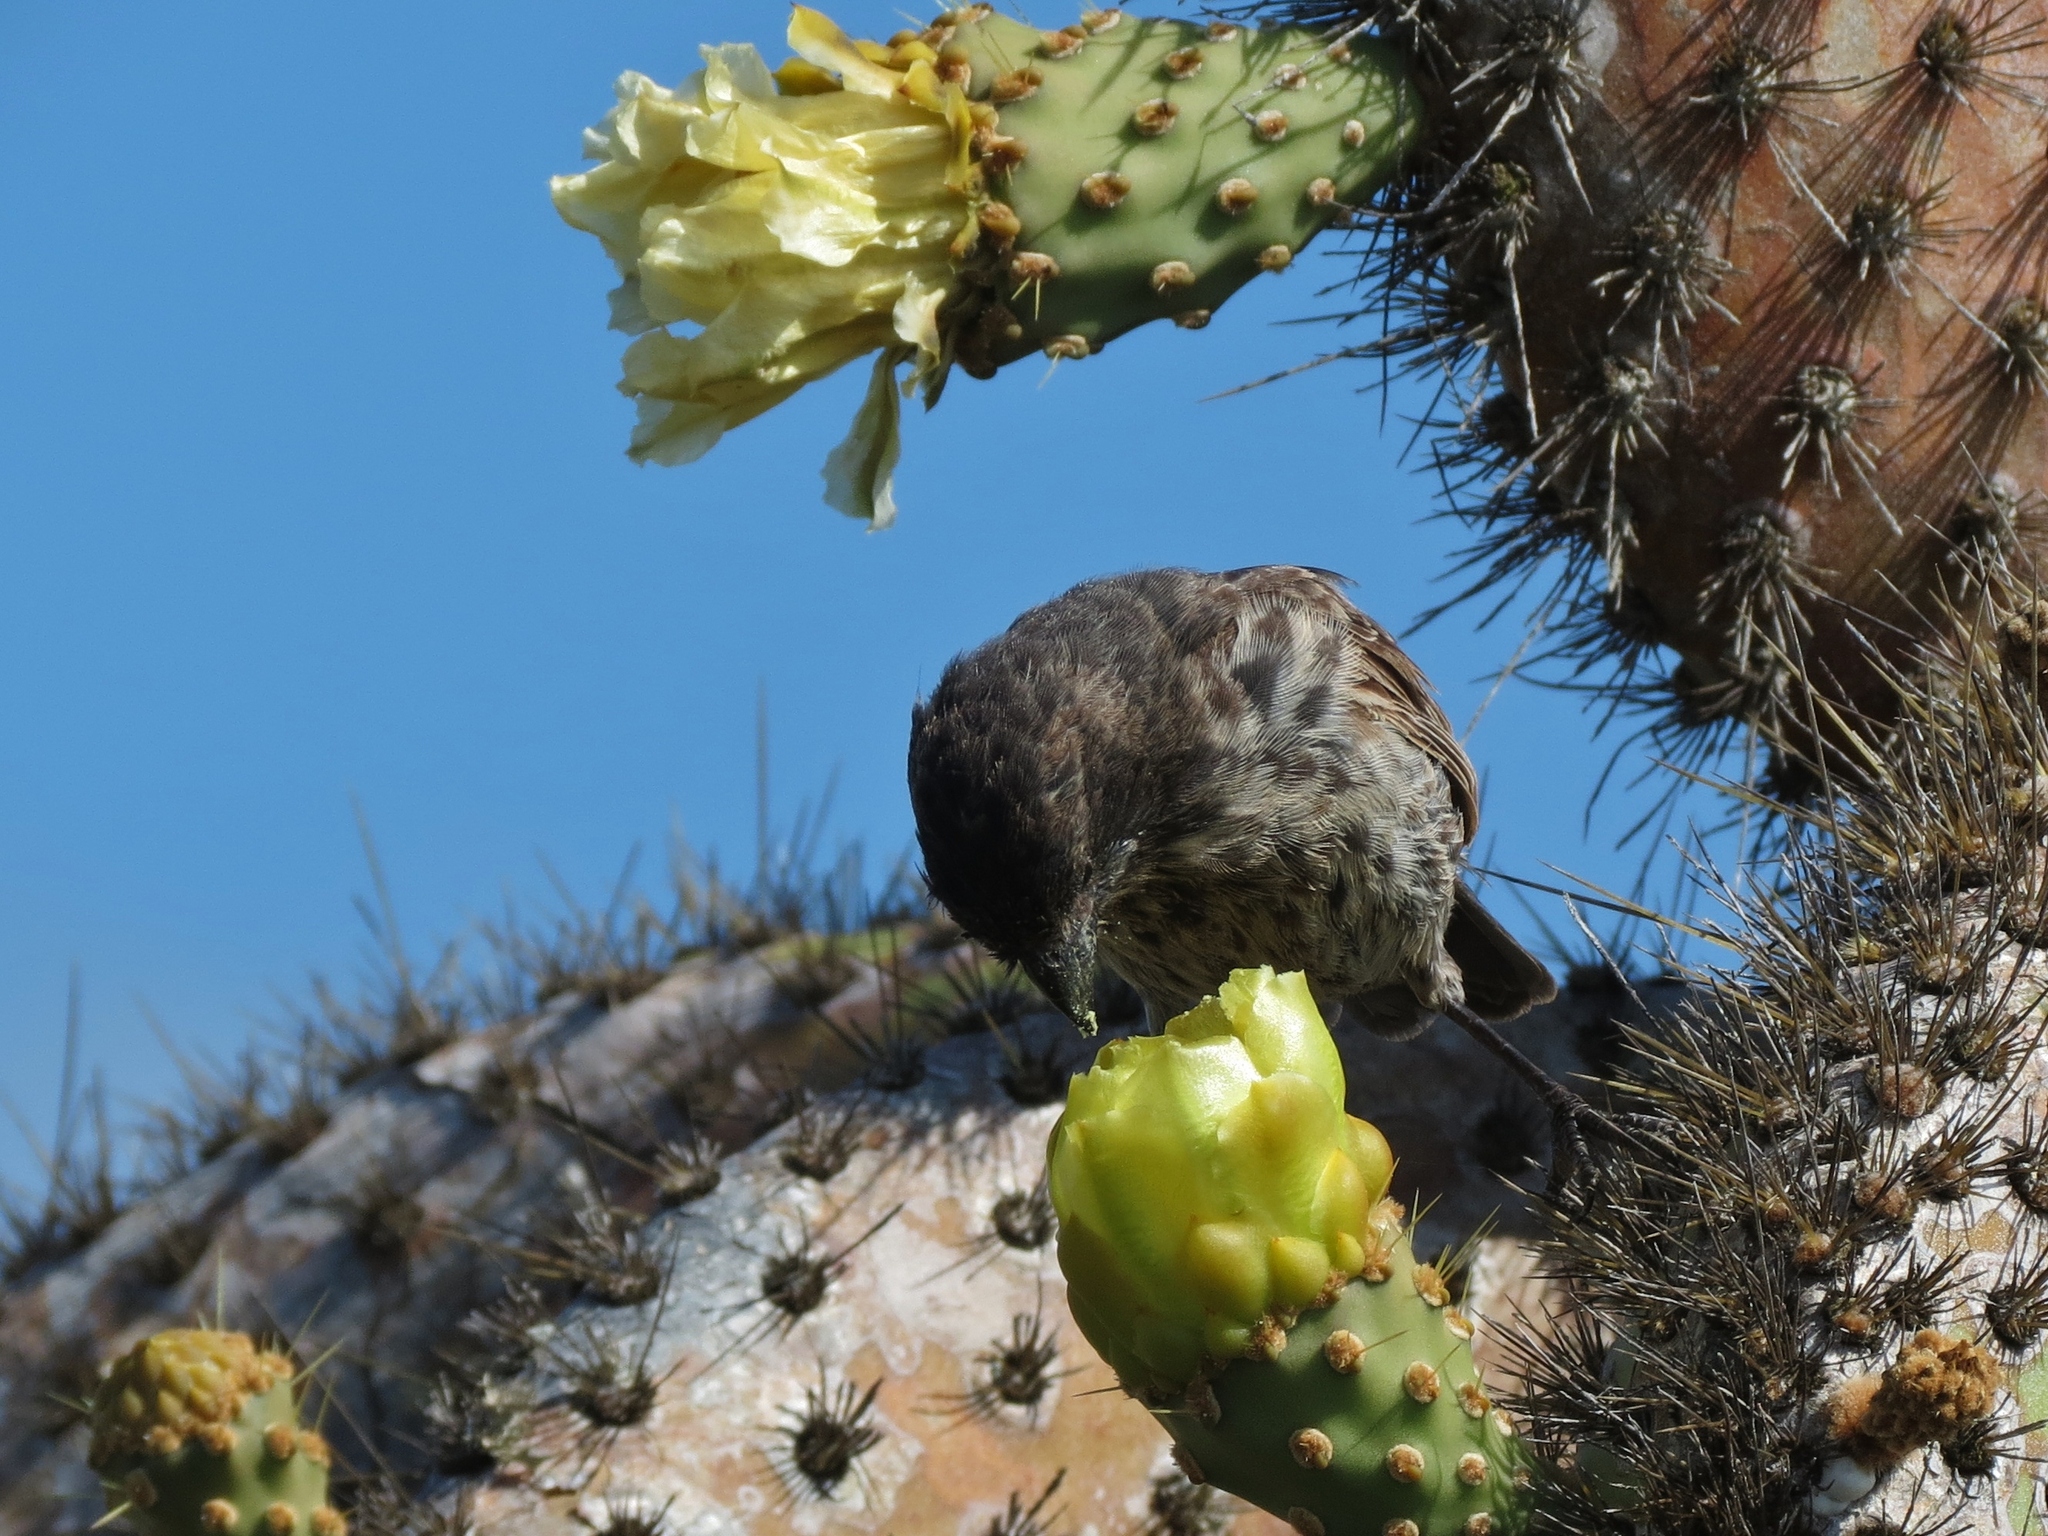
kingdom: Animalia
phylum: Chordata
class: Aves
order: Passeriformes
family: Thraupidae
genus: Geospiza
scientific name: Geospiza scandens
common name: Common cactus-finch
